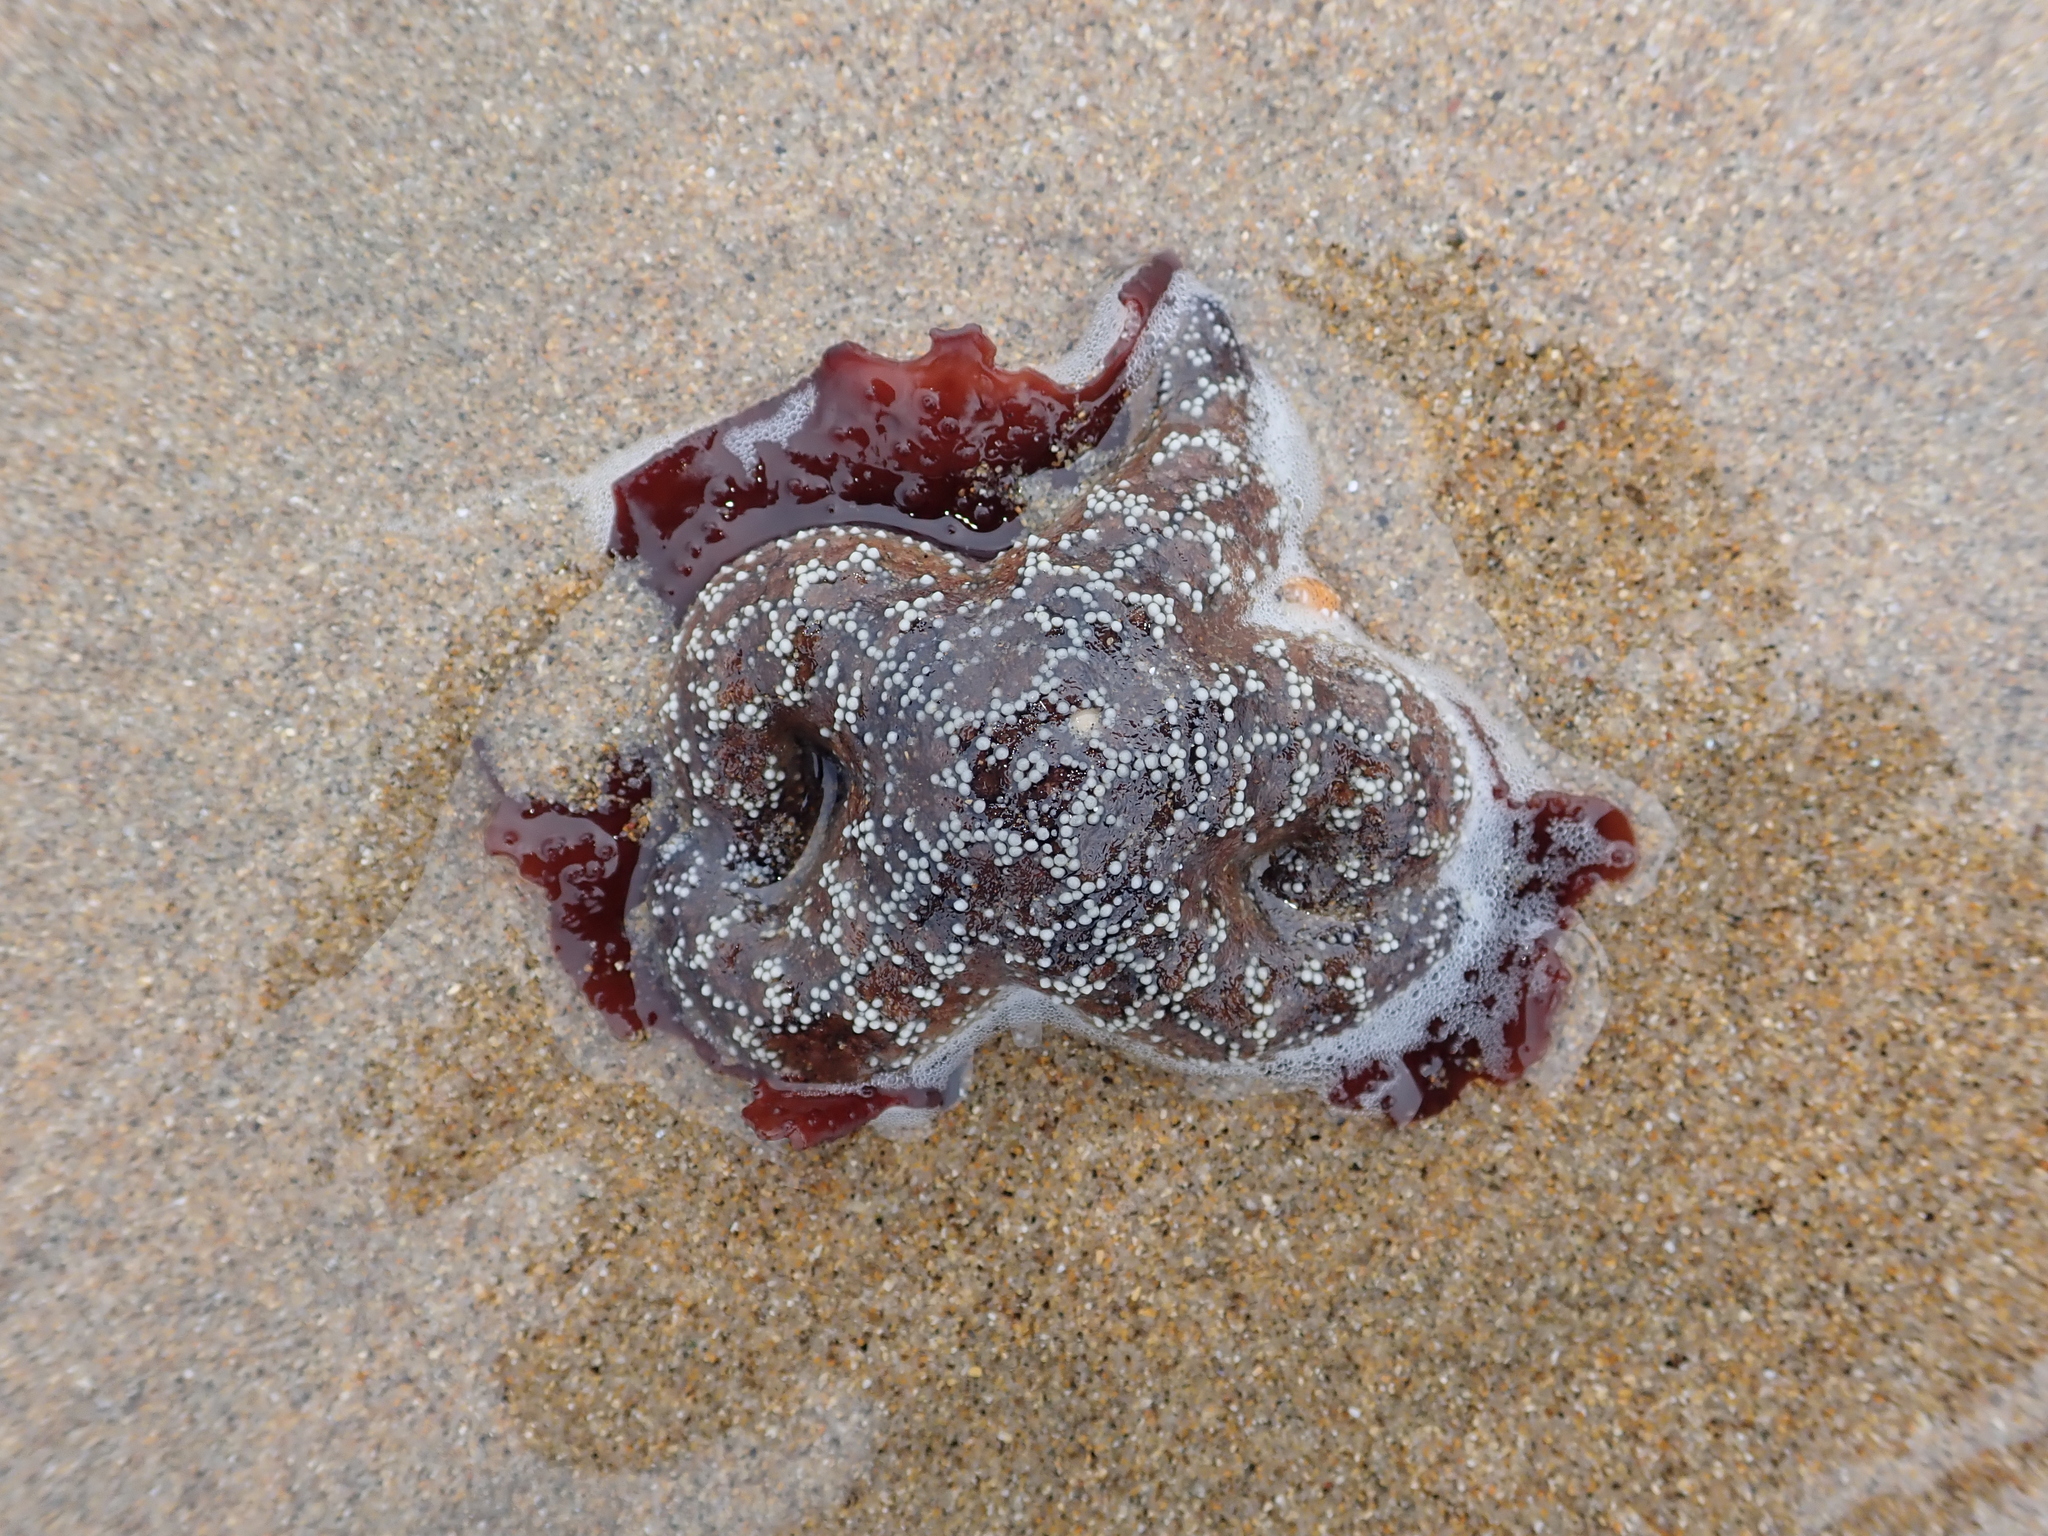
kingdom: Animalia
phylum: Echinodermata
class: Asteroidea
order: Forcipulatida
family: Asteriidae
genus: Pisaster
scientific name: Pisaster ochraceus
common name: Ochre stars
